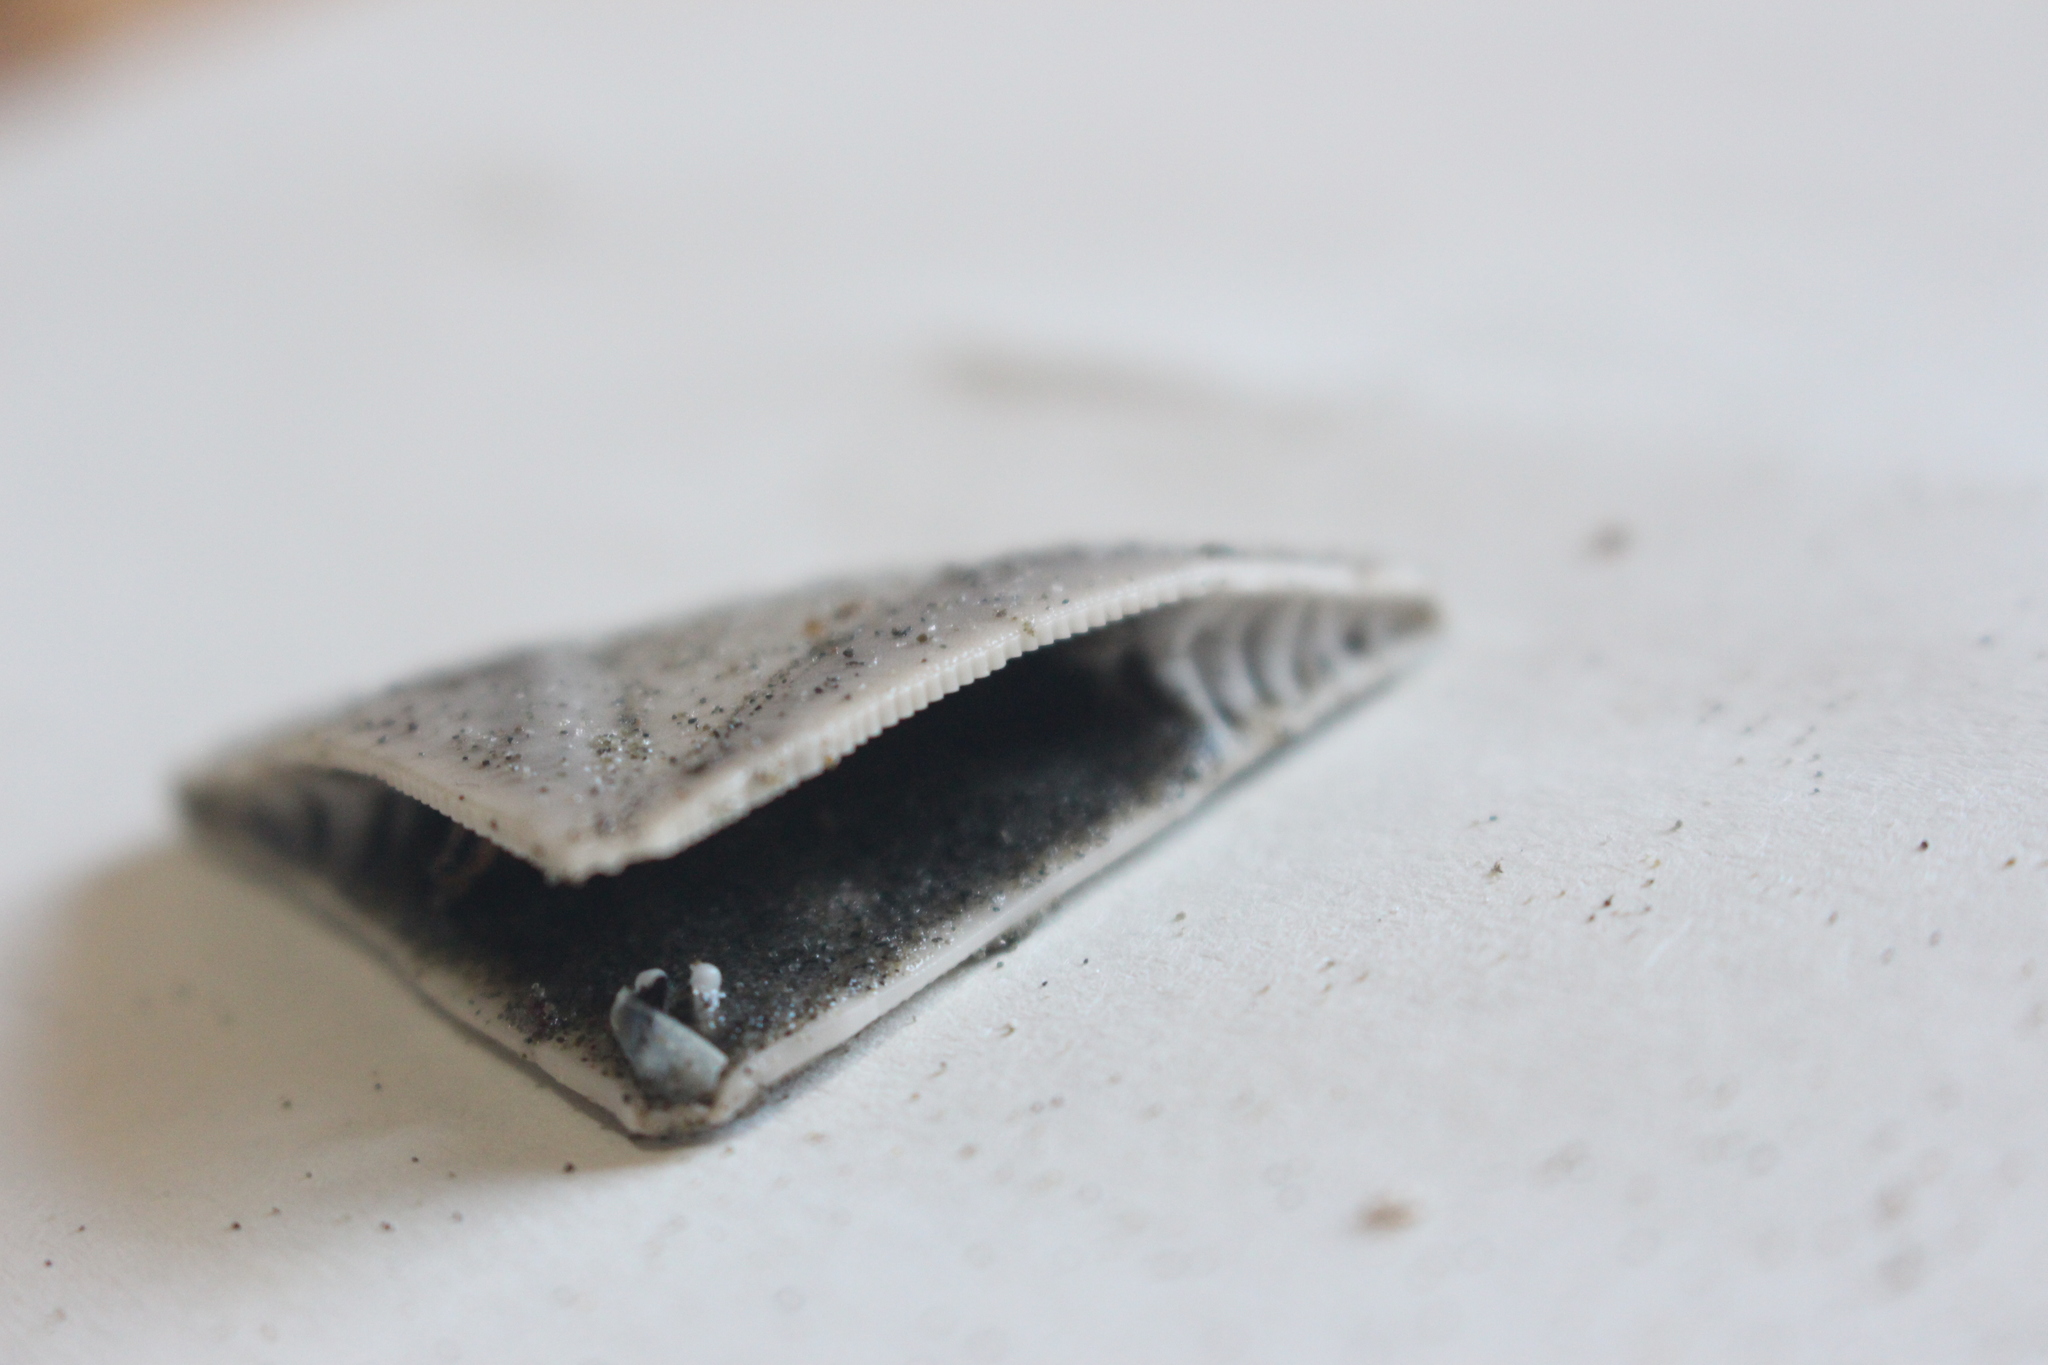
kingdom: Animalia
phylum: Echinodermata
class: Echinoidea
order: Clypeasteroida
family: Clypeasteridae
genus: Fellaster
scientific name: Fellaster zelandiae
